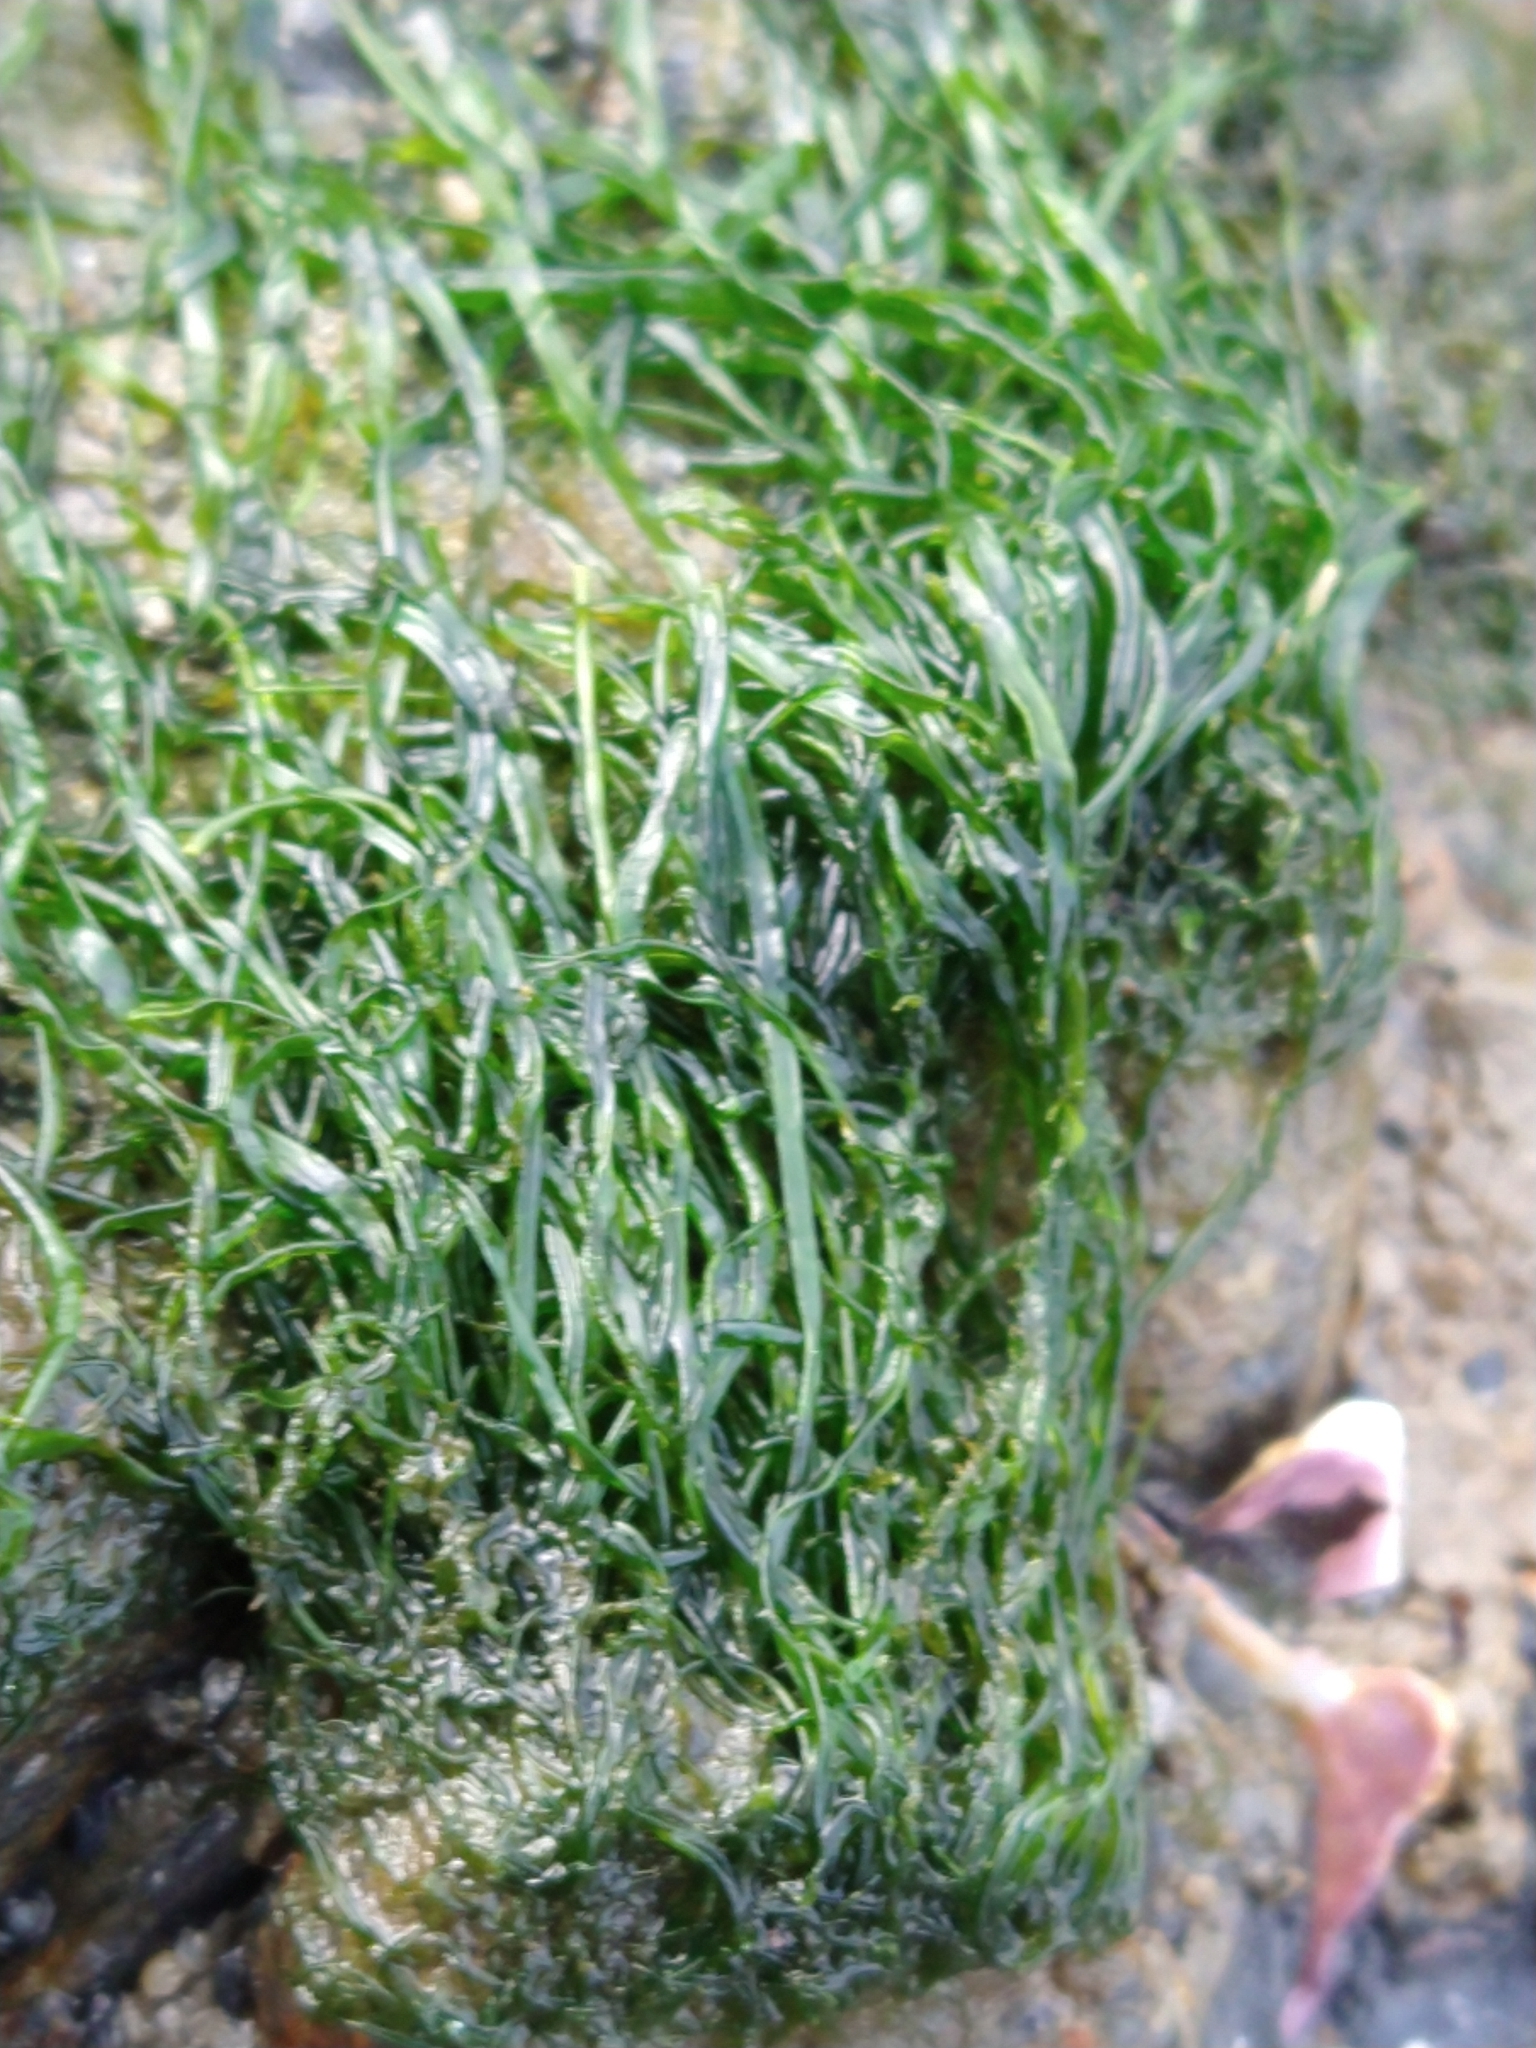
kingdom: Plantae
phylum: Chlorophyta
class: Ulvophyceae
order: Ulvales
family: Ulvaceae
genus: Ulva
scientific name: Ulva
